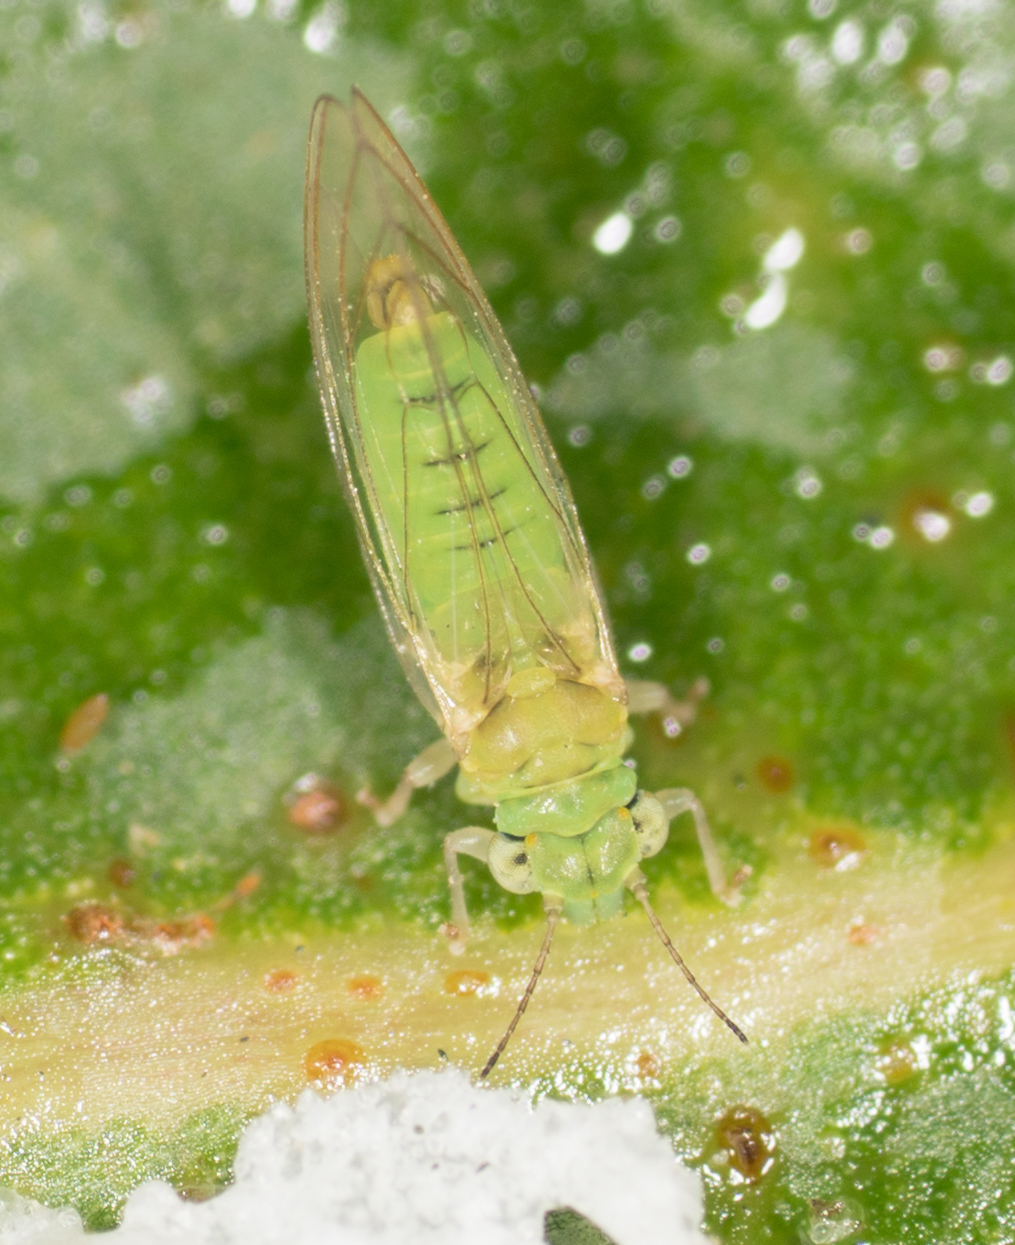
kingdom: Animalia
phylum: Arthropoda
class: Insecta
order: Hemiptera
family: Aphalaridae
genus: Eucalyptolyma
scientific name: Eucalyptolyma maideni
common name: Spotted gum lerp psyllid
